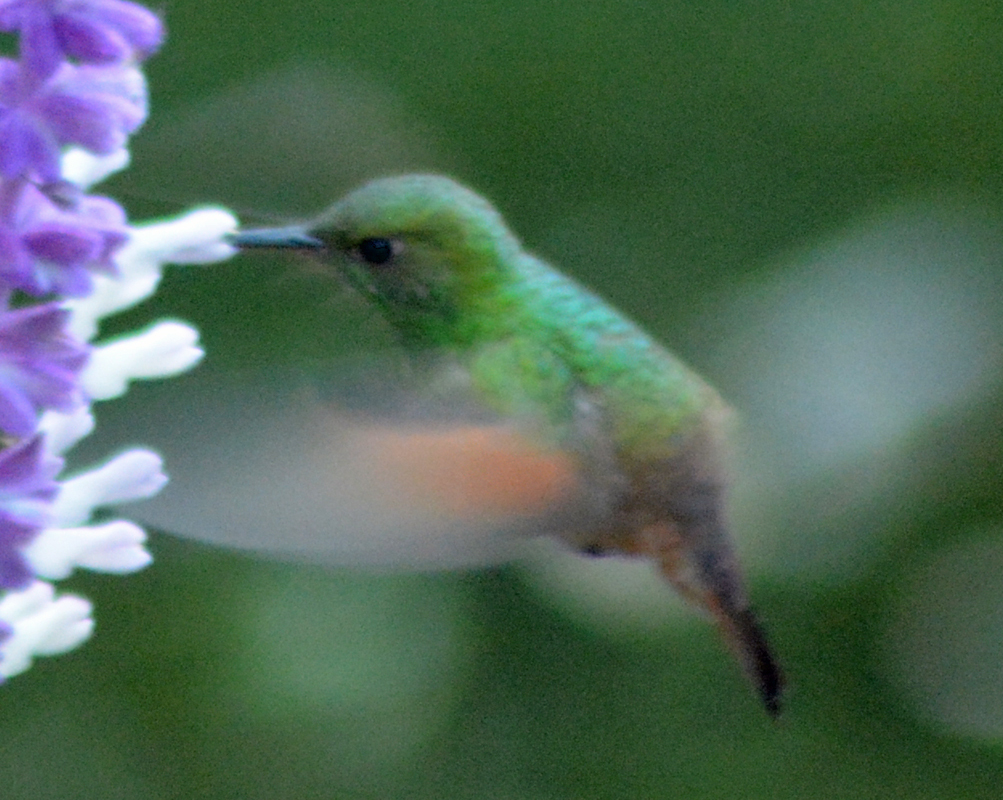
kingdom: Animalia
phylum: Chordata
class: Aves
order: Apodiformes
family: Trochilidae
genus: Saucerottia
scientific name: Saucerottia beryllina
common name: Berylline hummingbird
